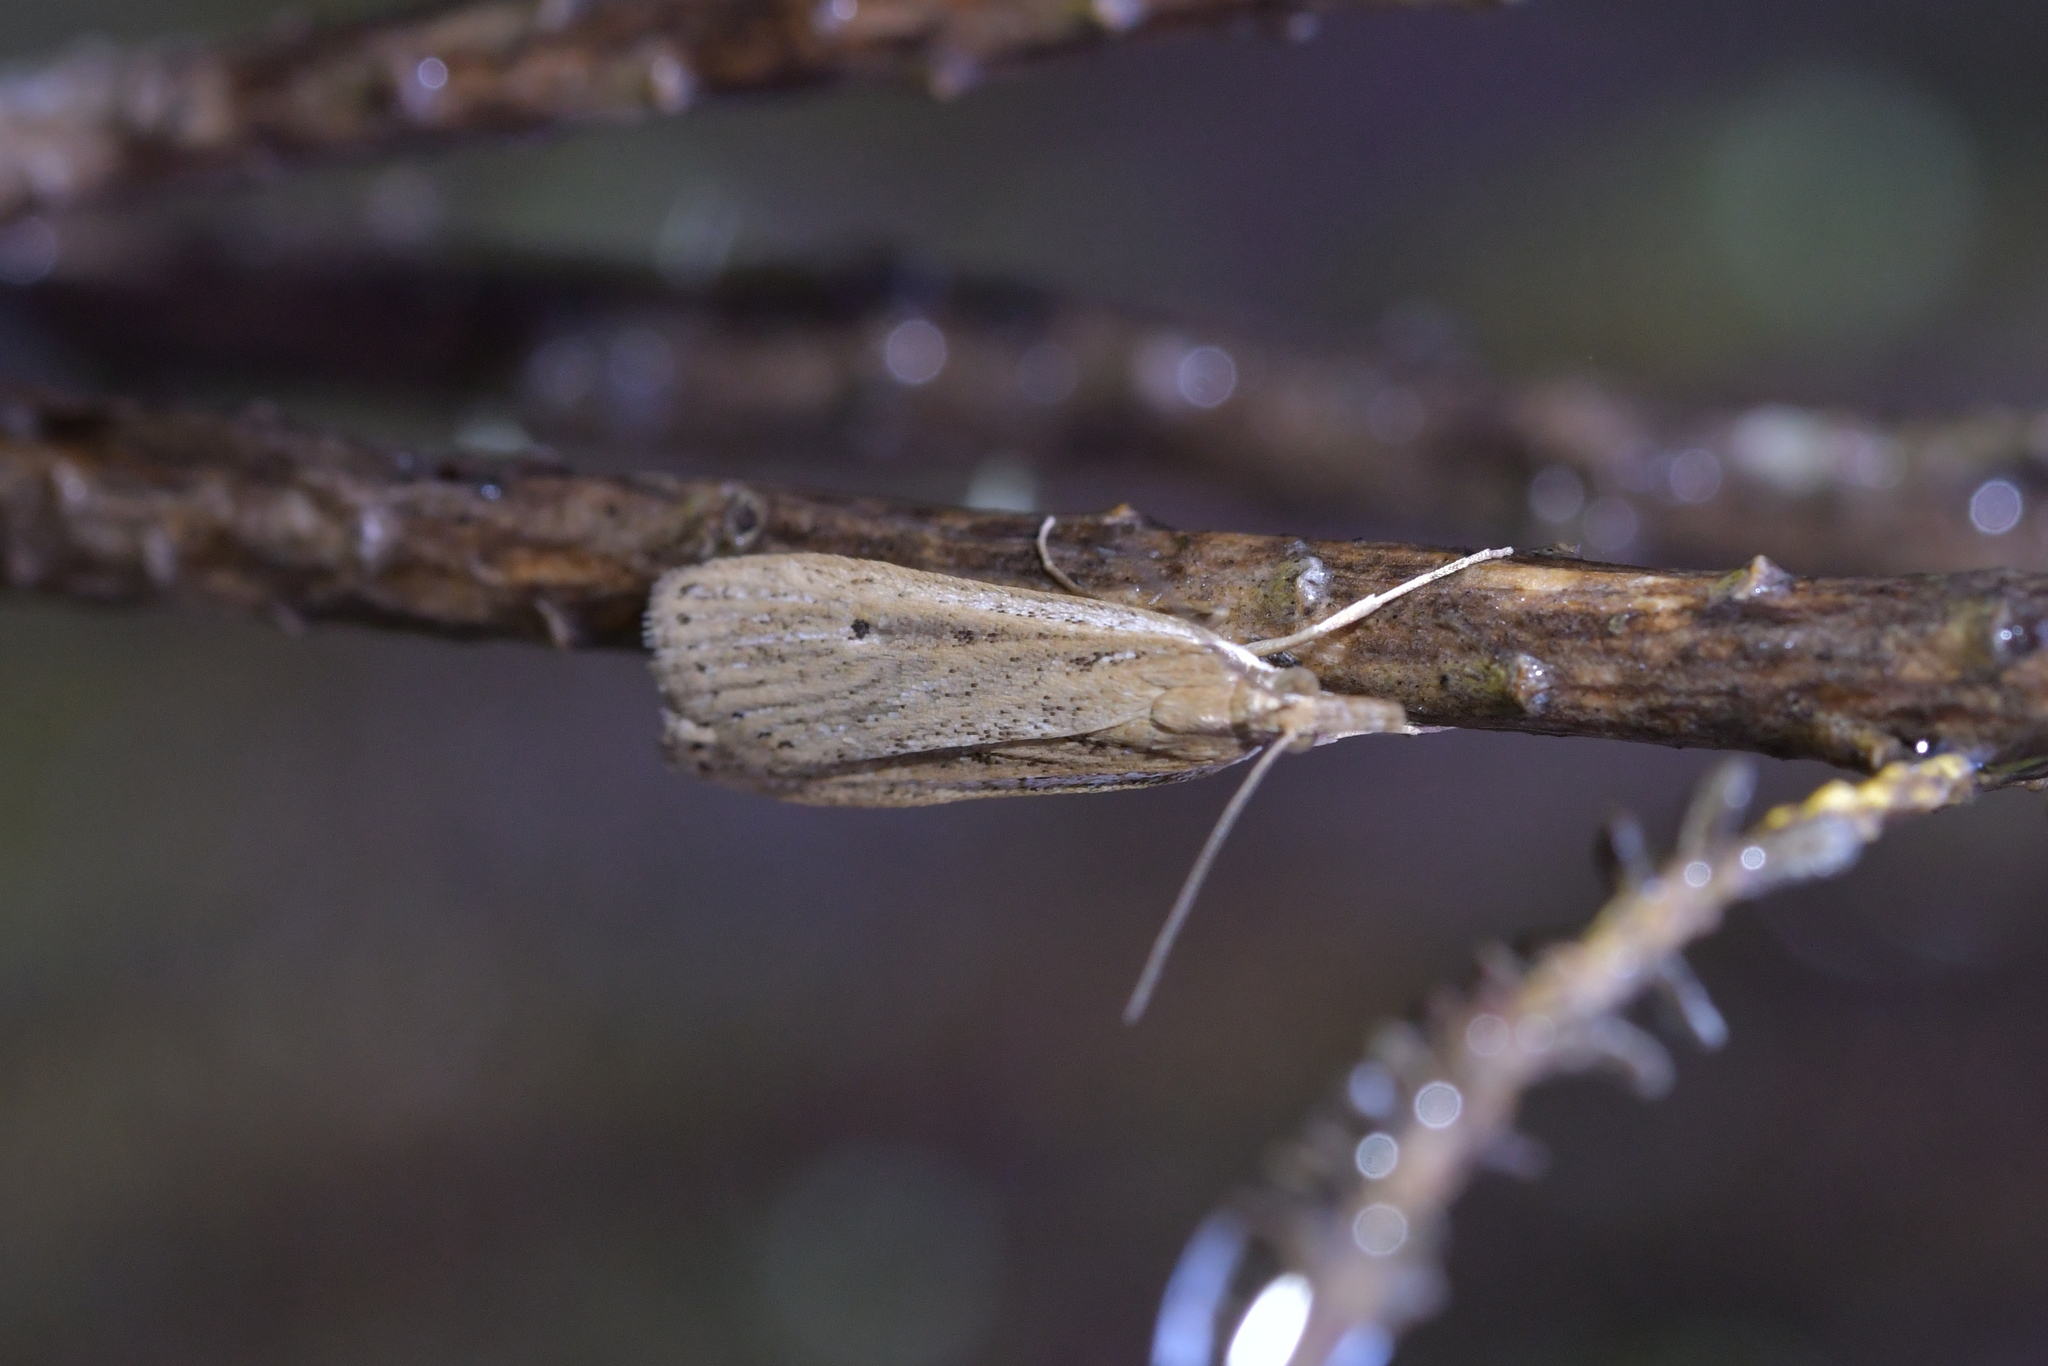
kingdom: Animalia
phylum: Arthropoda
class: Insecta
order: Lepidoptera
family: Crambidae
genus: Eudonia
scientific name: Eudonia sabulosella
